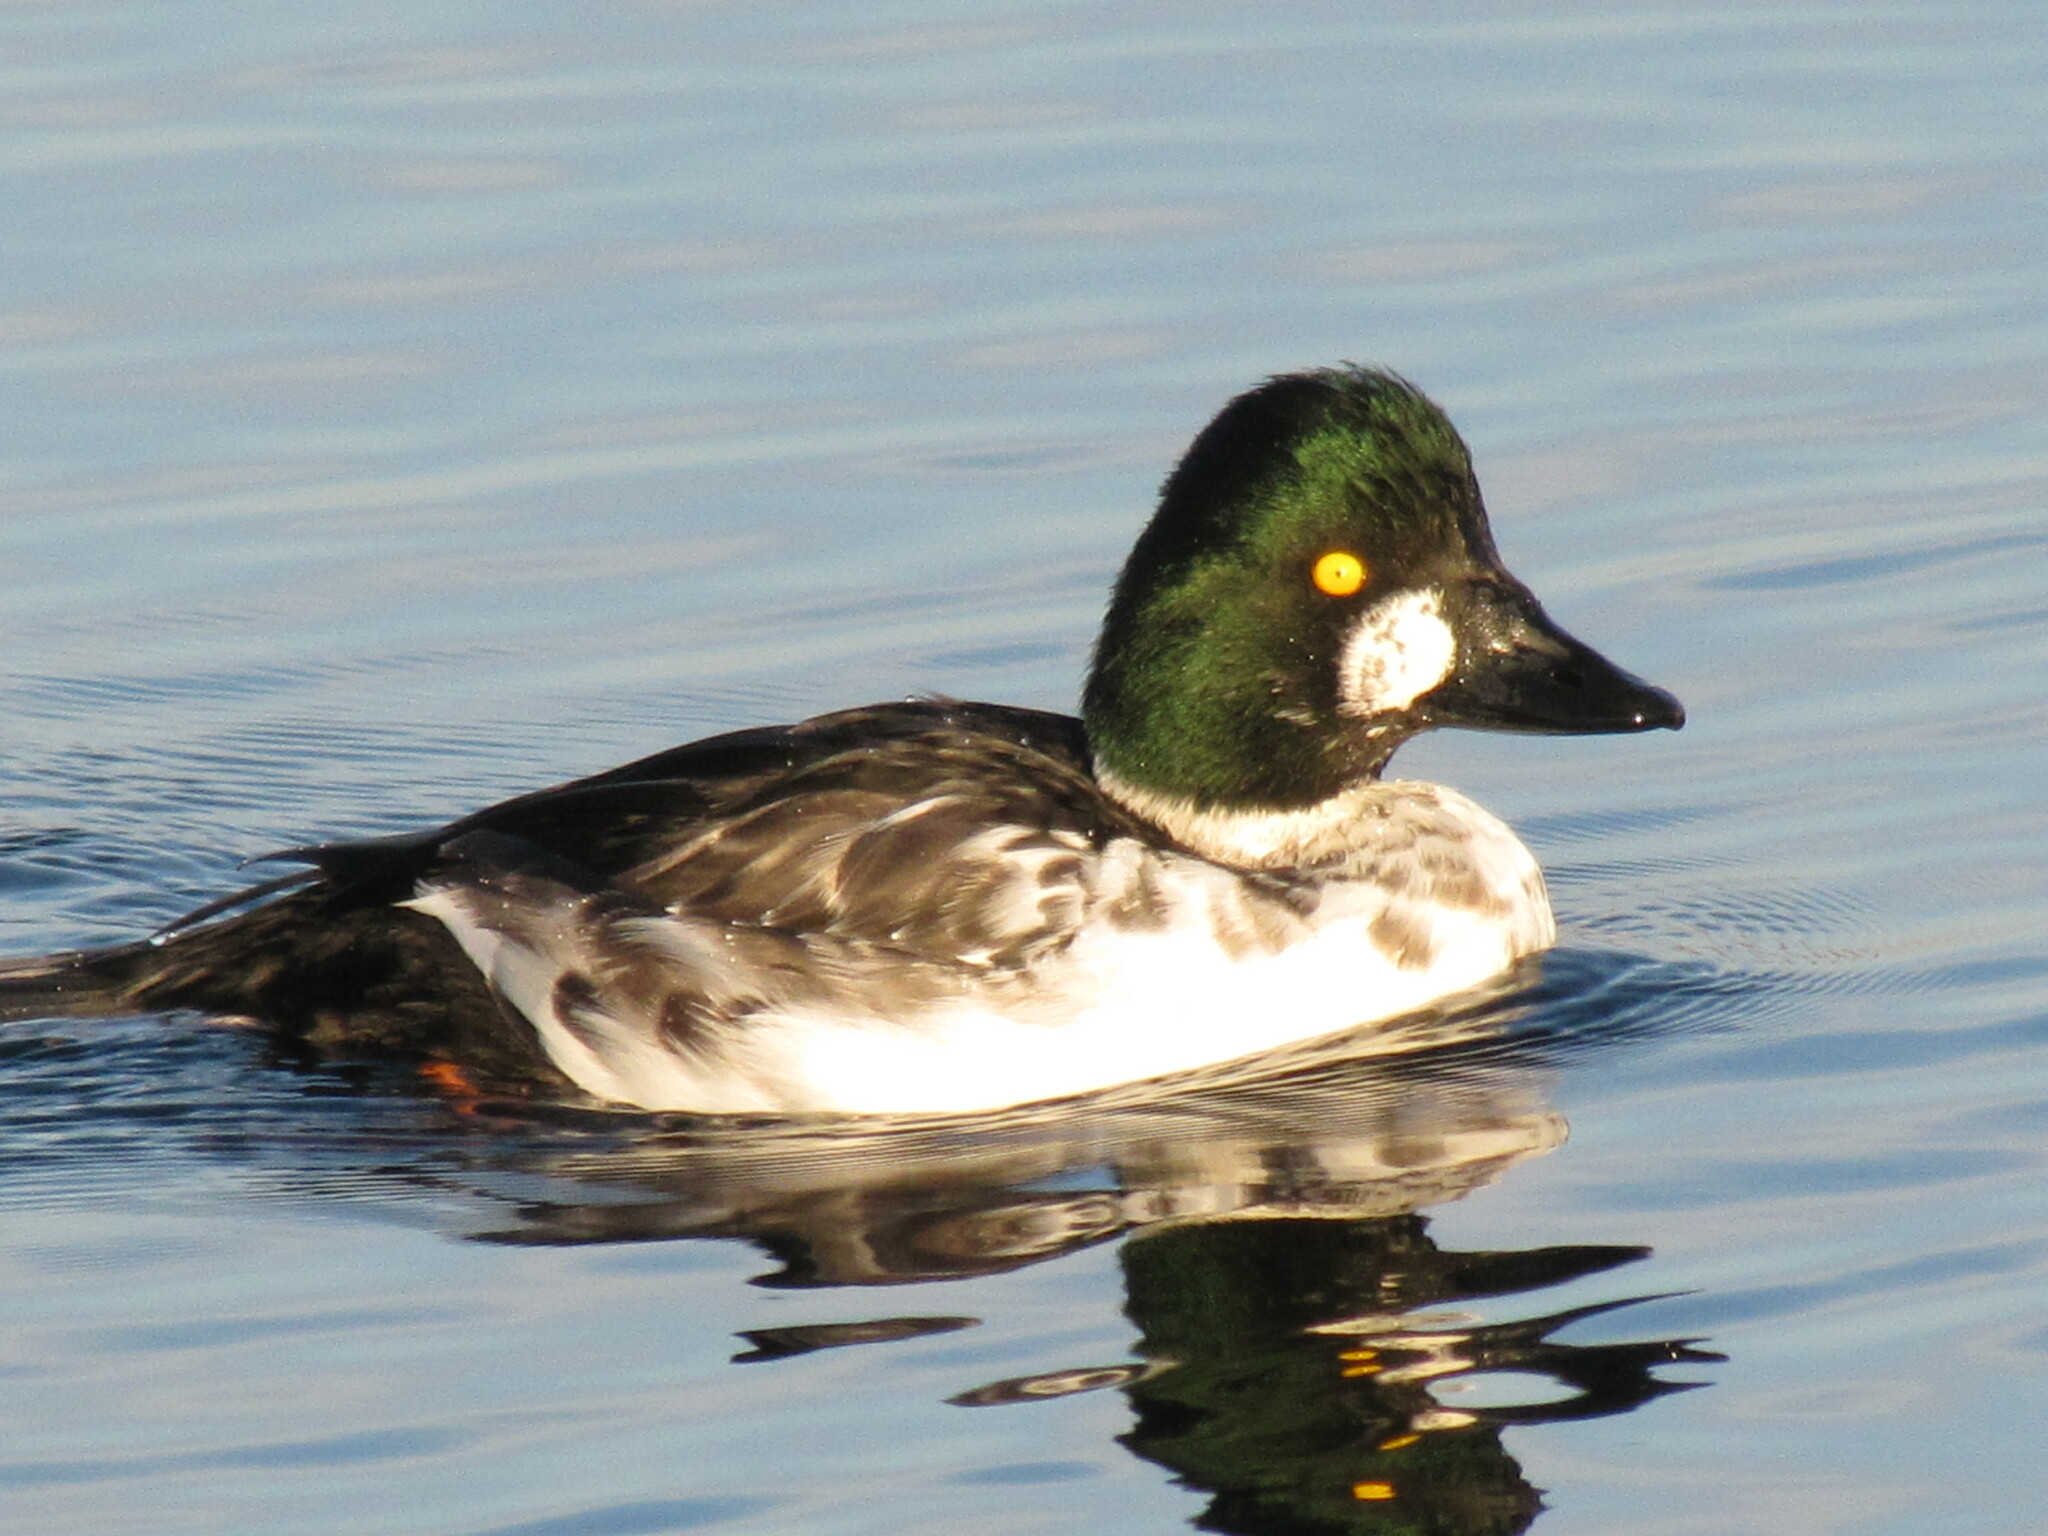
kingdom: Animalia
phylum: Chordata
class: Aves
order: Anseriformes
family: Anatidae
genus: Bucephala
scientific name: Bucephala clangula
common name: Common goldeneye
